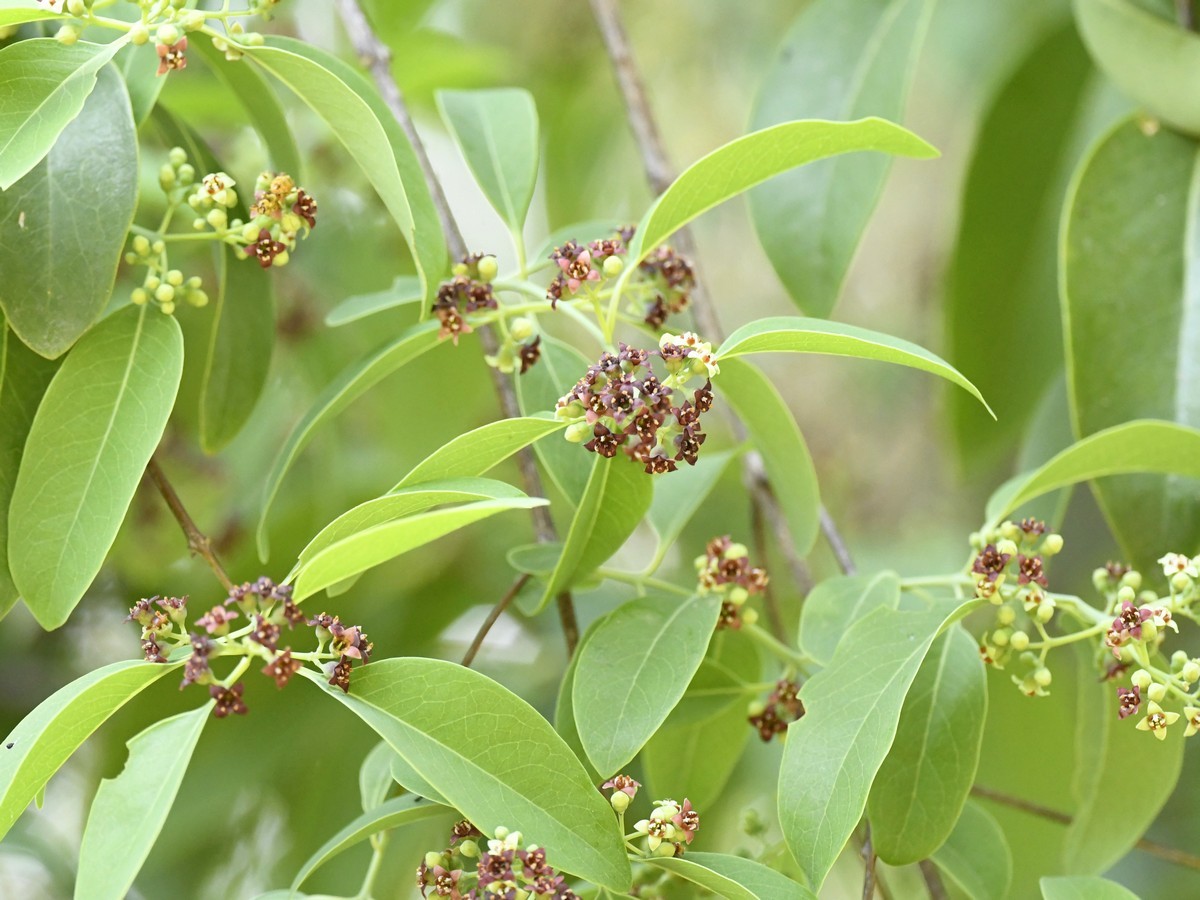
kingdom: Plantae
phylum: Tracheophyta
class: Magnoliopsida
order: Santalales
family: Santalaceae
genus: Santalum
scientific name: Santalum album
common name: Indian sandalwood
